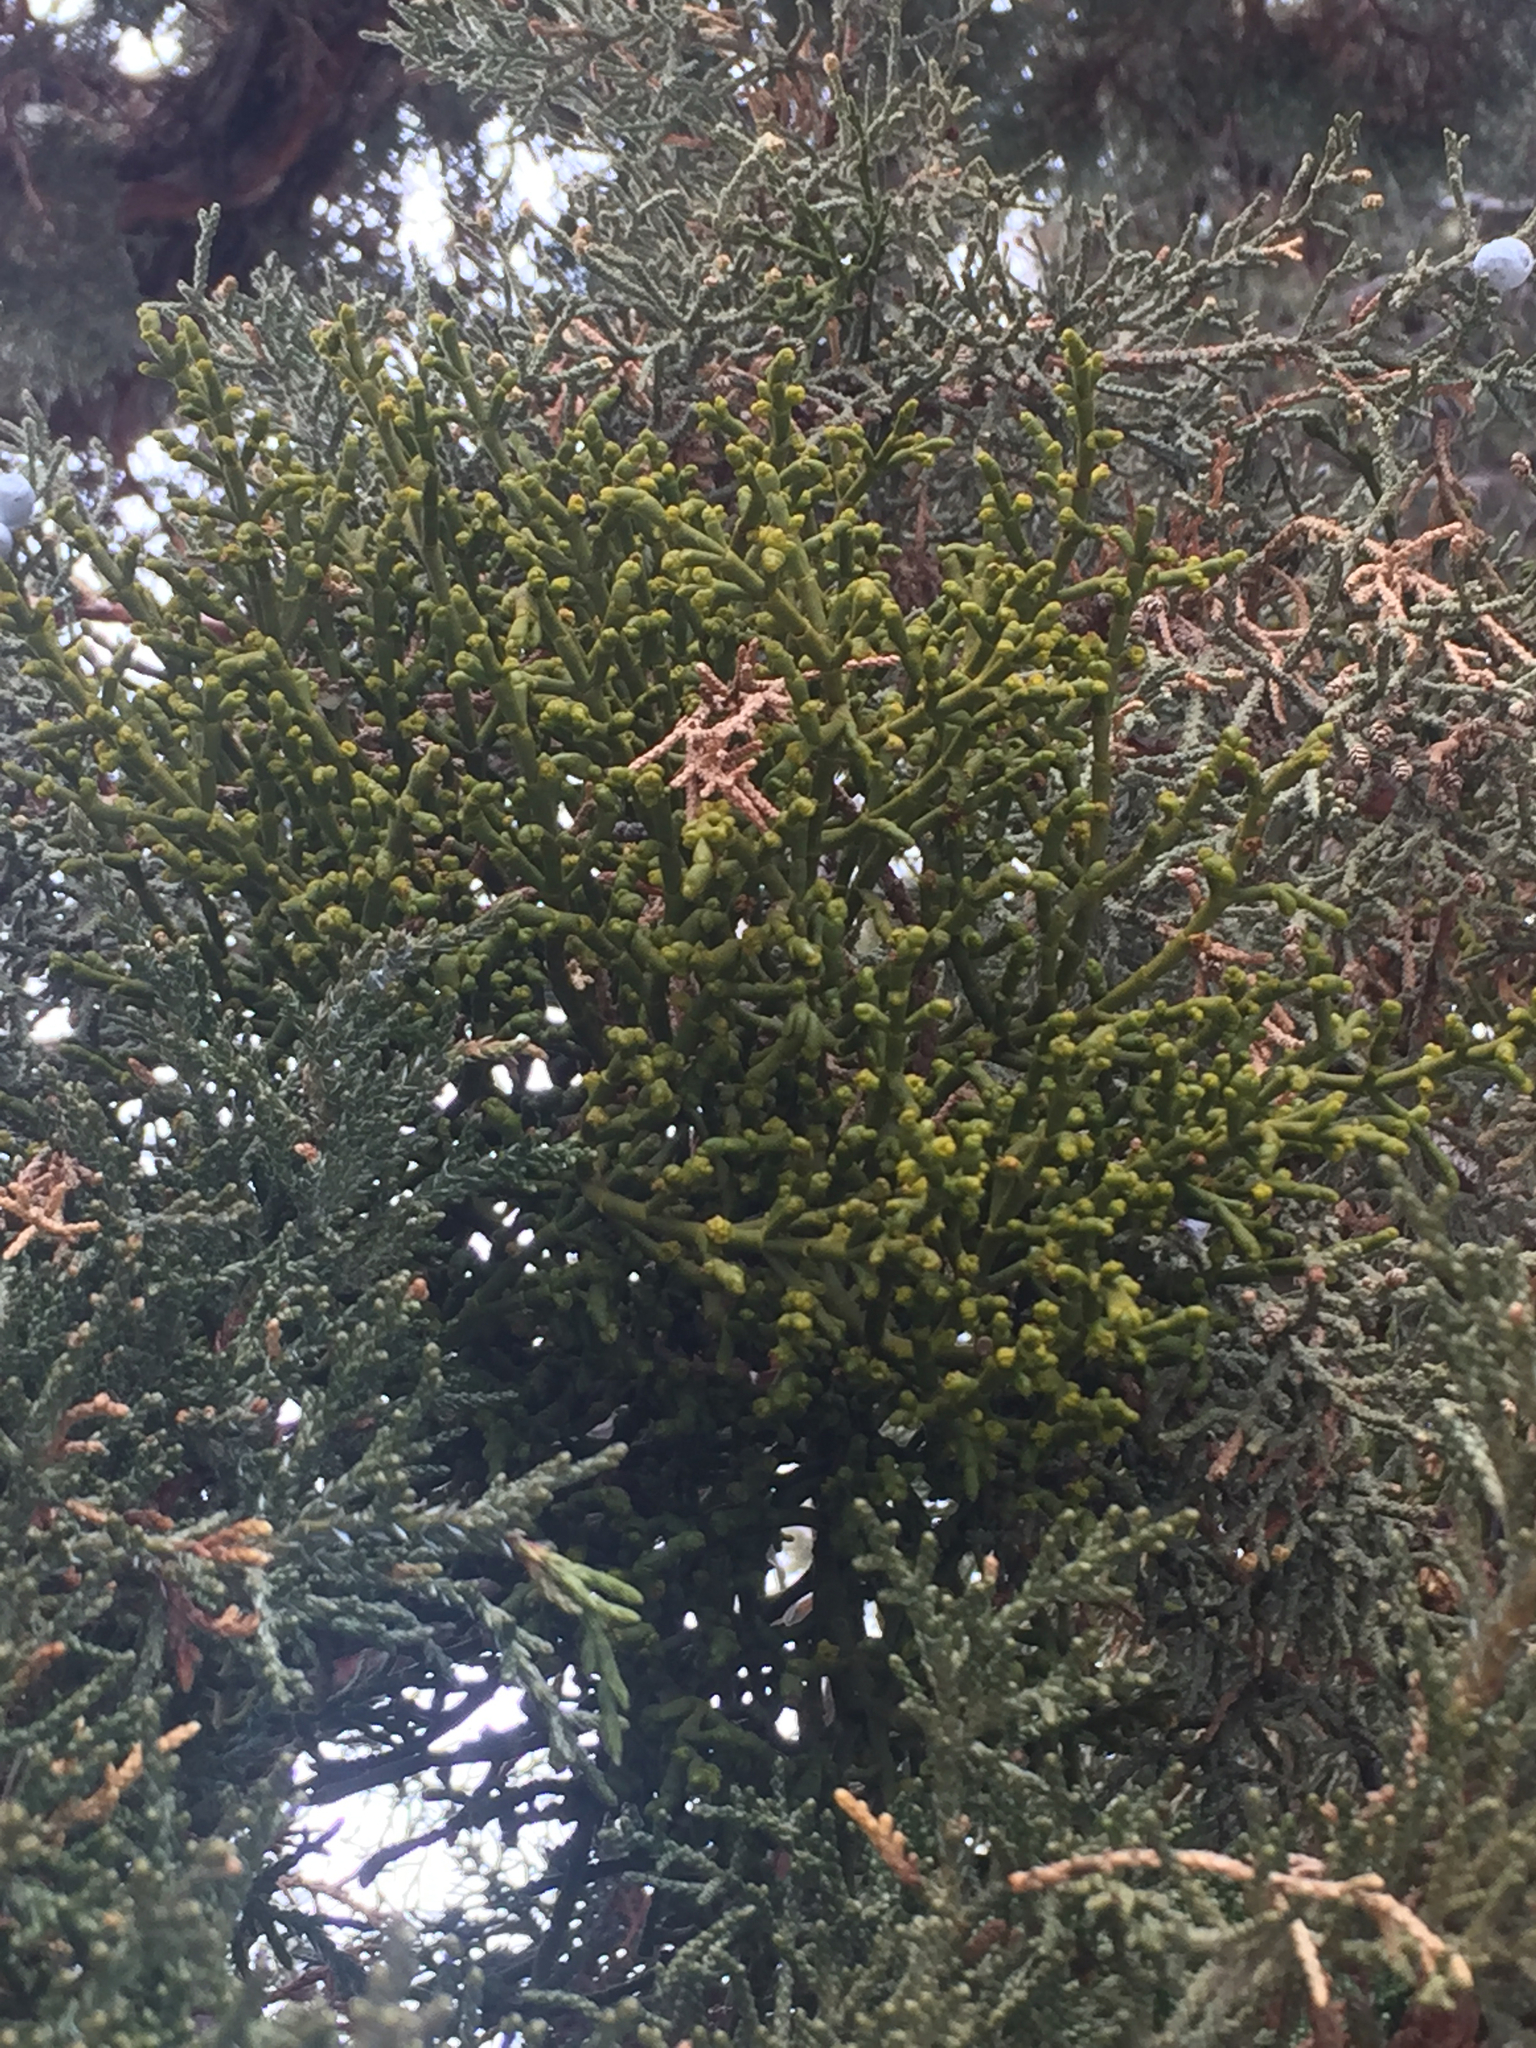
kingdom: Plantae
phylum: Tracheophyta
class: Magnoliopsida
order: Santalales
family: Viscaceae
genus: Phoradendron
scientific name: Phoradendron juniperinum
